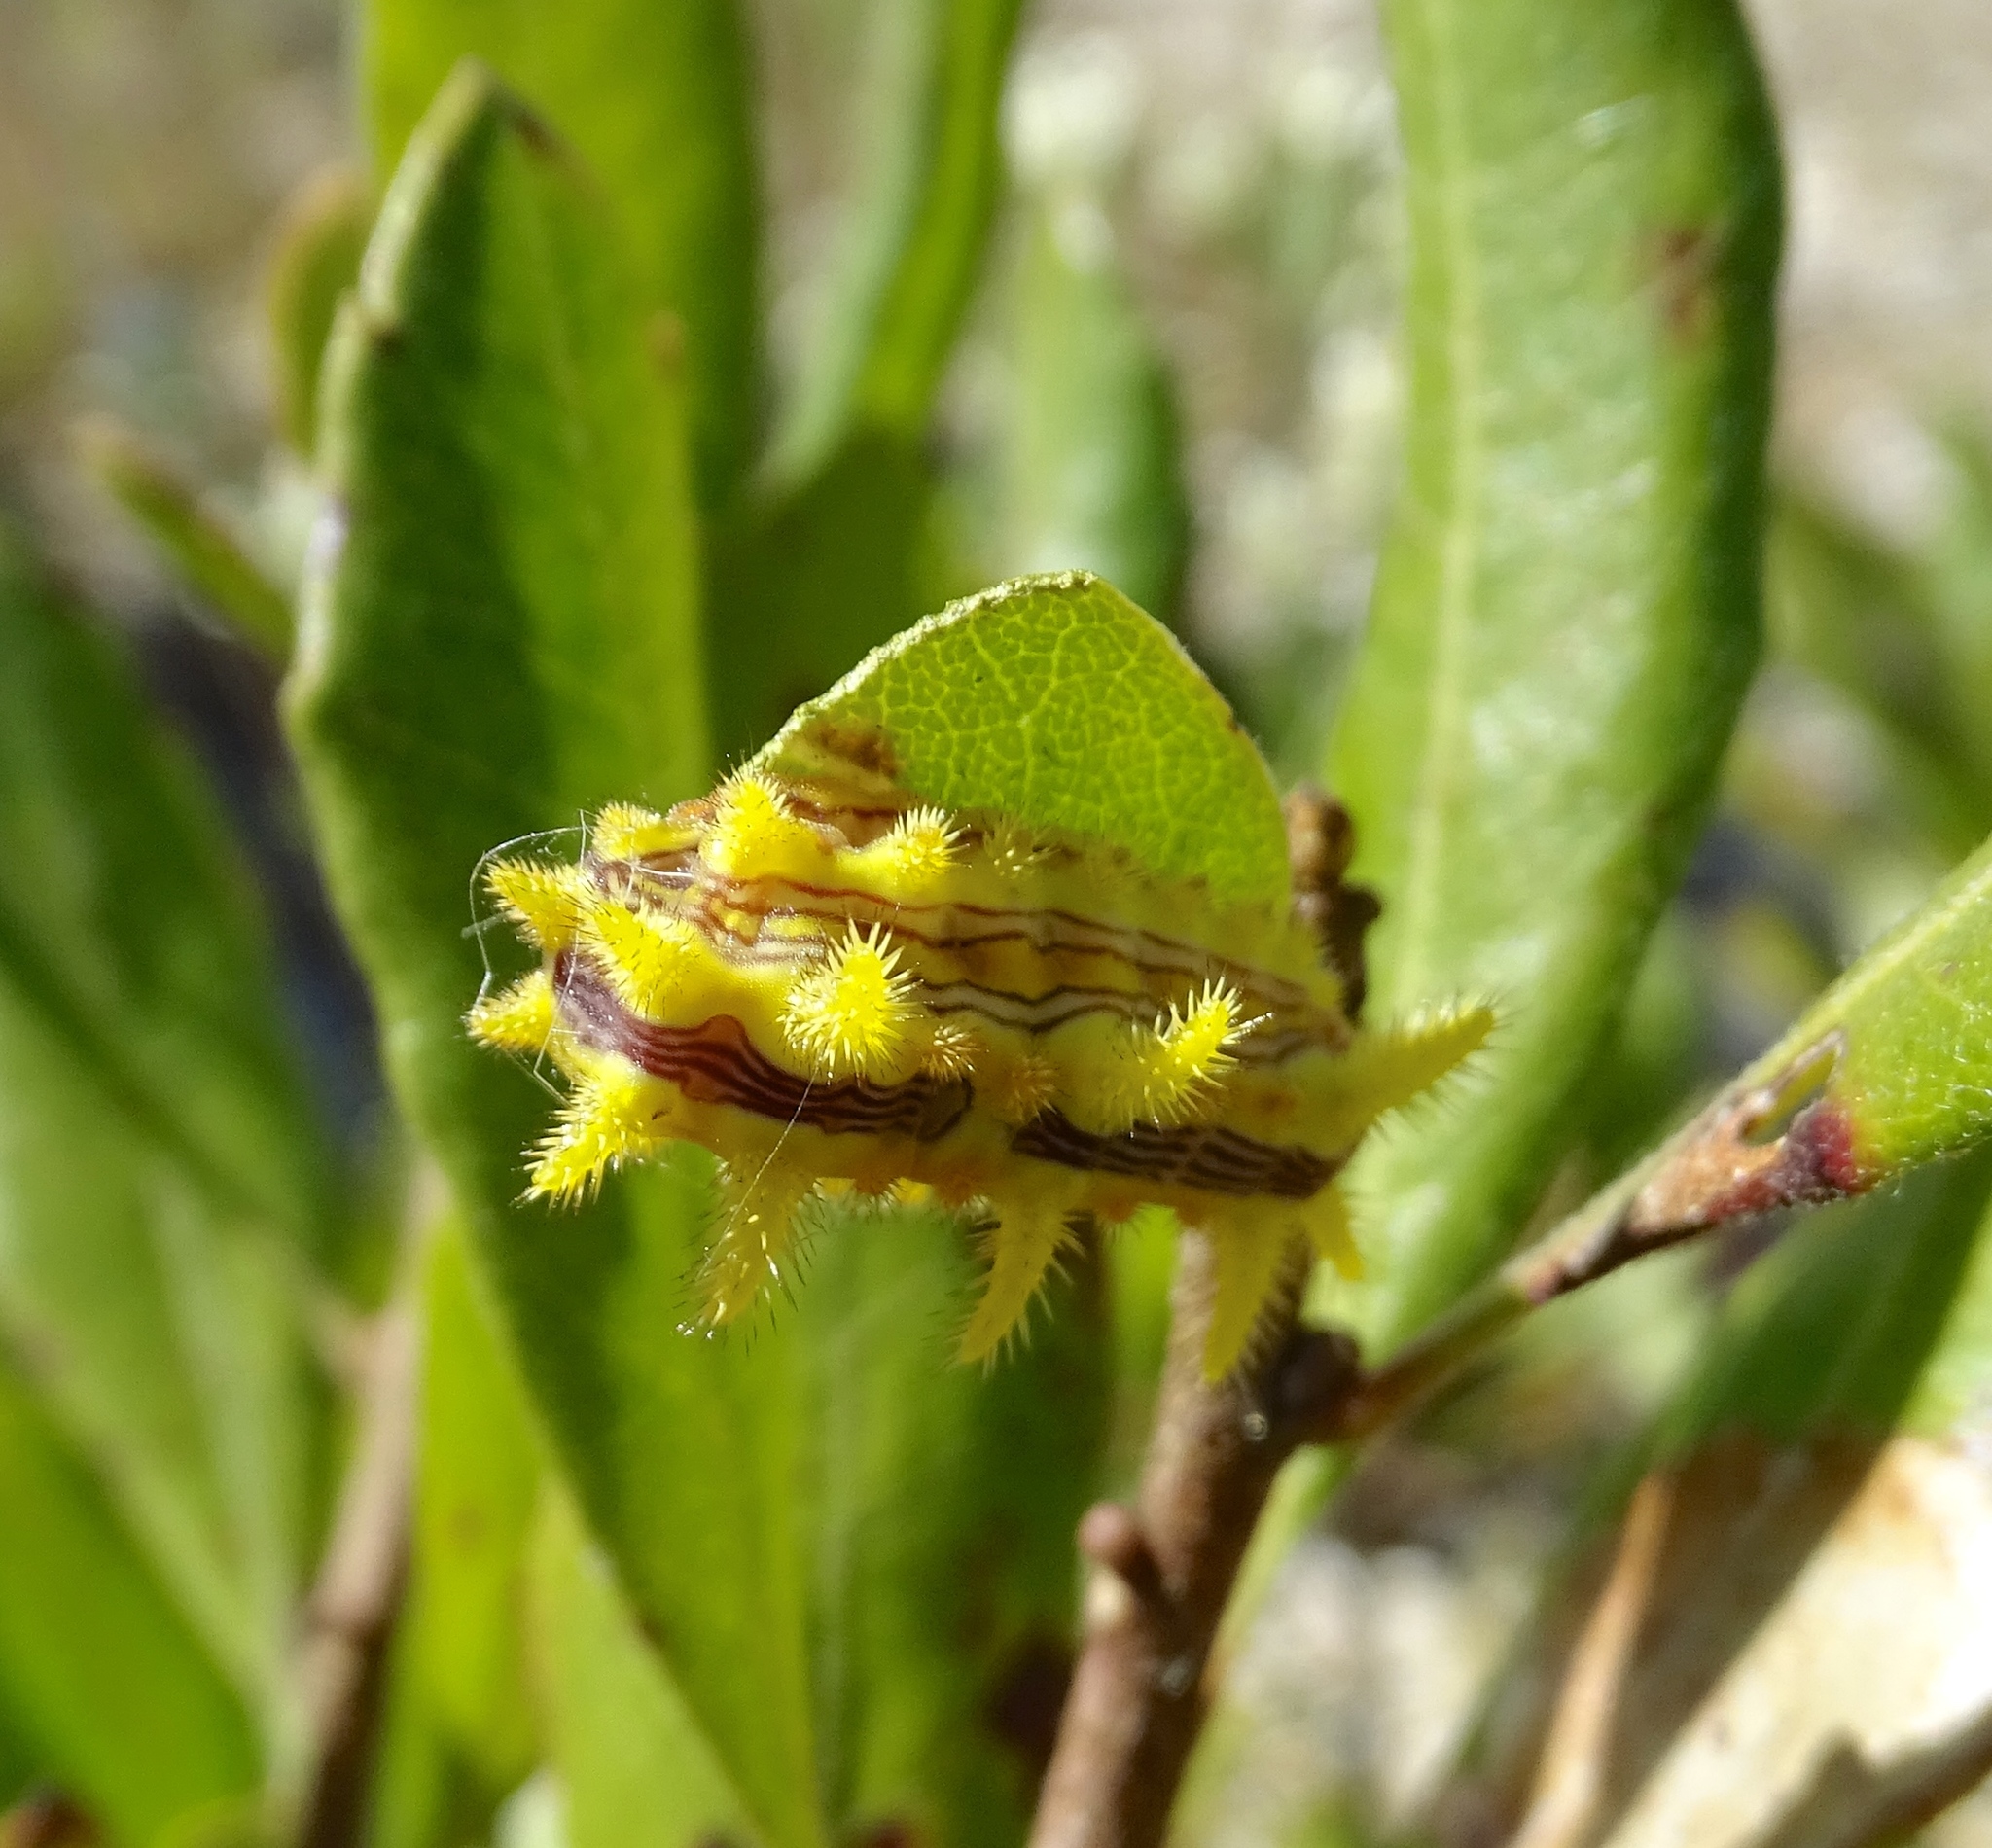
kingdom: Animalia
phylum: Arthropoda
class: Insecta
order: Lepidoptera
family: Limacodidae
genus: Parasa
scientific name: Parasa indetermina
